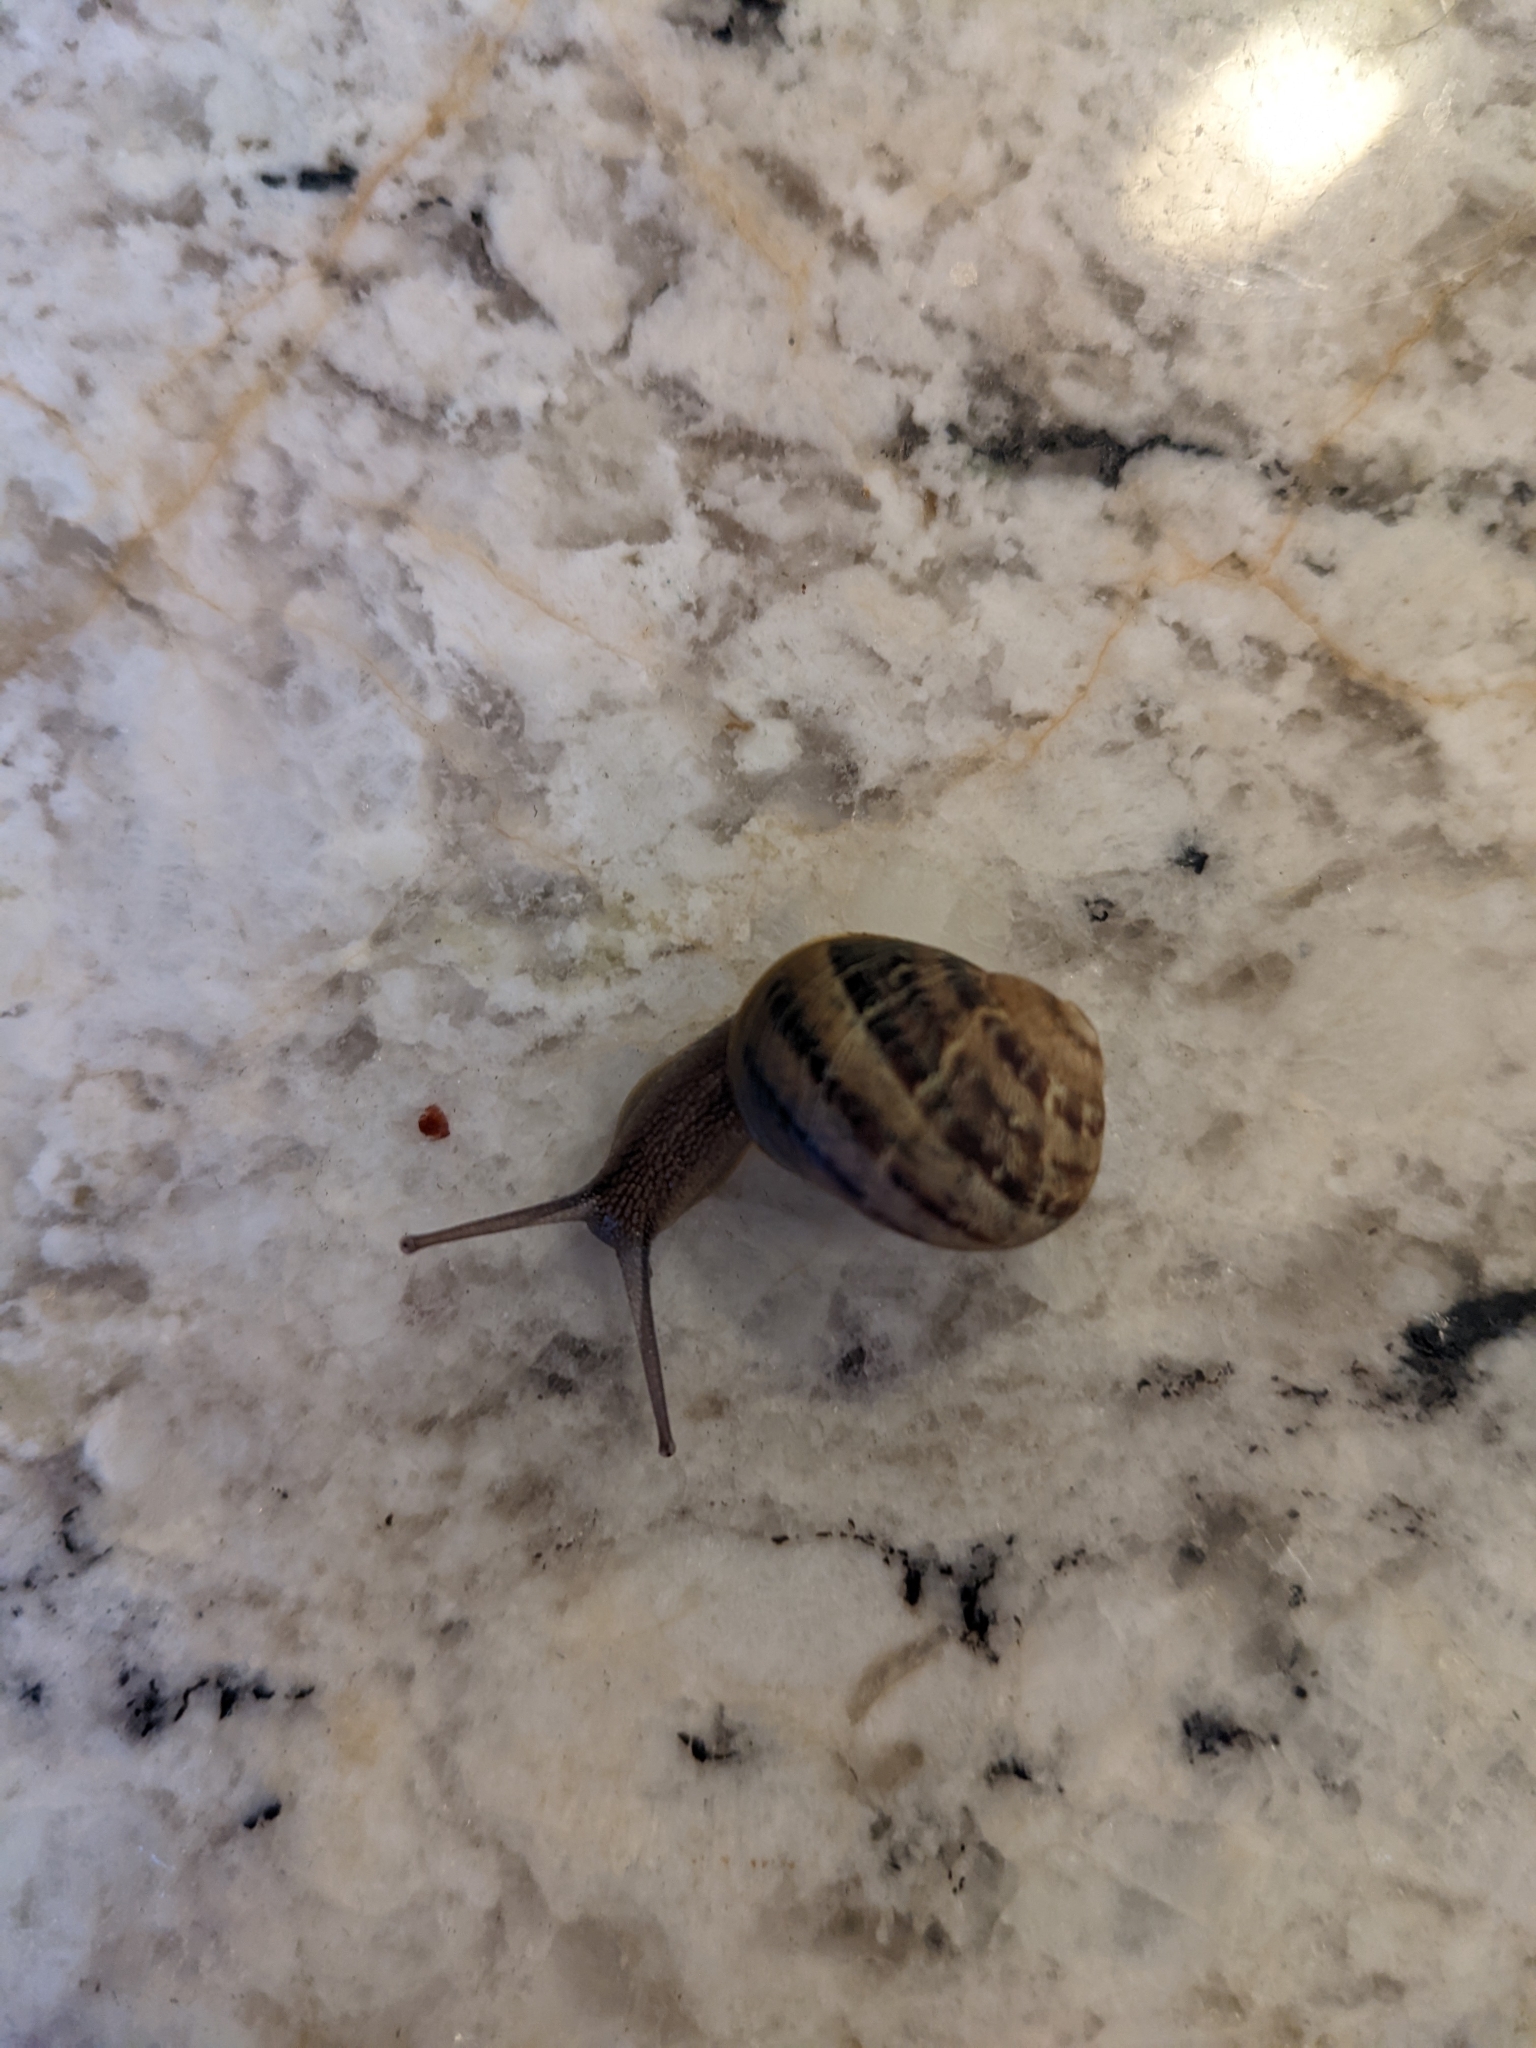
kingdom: Animalia
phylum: Mollusca
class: Gastropoda
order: Stylommatophora
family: Helicidae
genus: Cornu
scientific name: Cornu aspersum
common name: Brown garden snail
